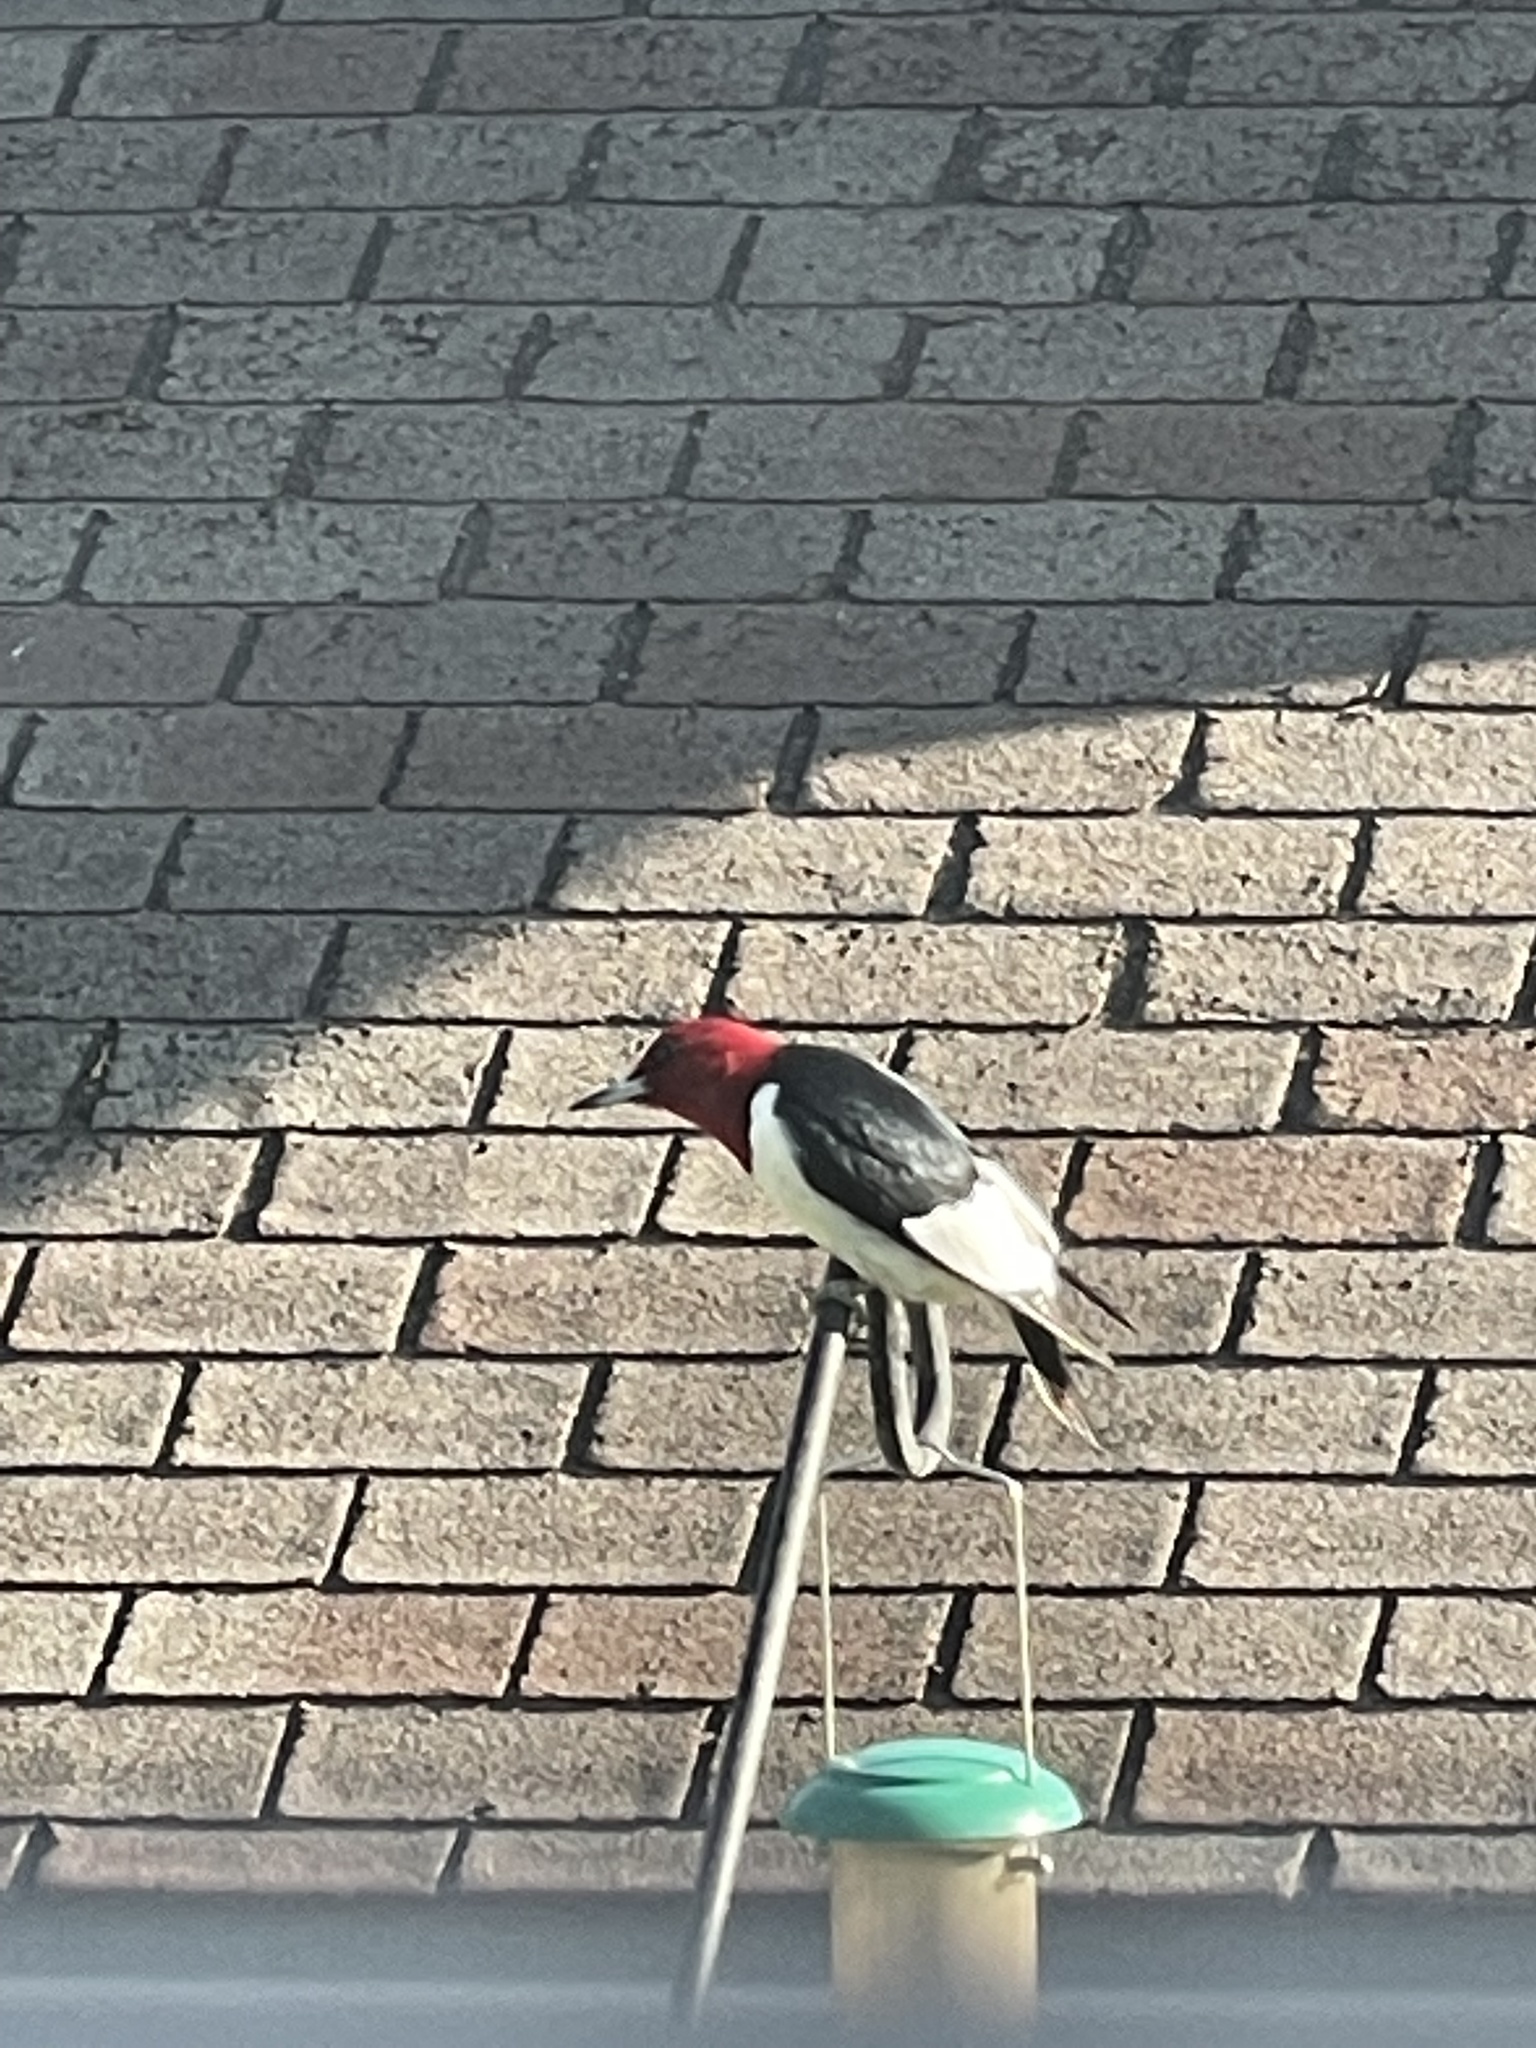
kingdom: Animalia
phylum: Chordata
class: Aves
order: Piciformes
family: Picidae
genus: Melanerpes
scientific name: Melanerpes erythrocephalus
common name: Red-headed woodpecker
